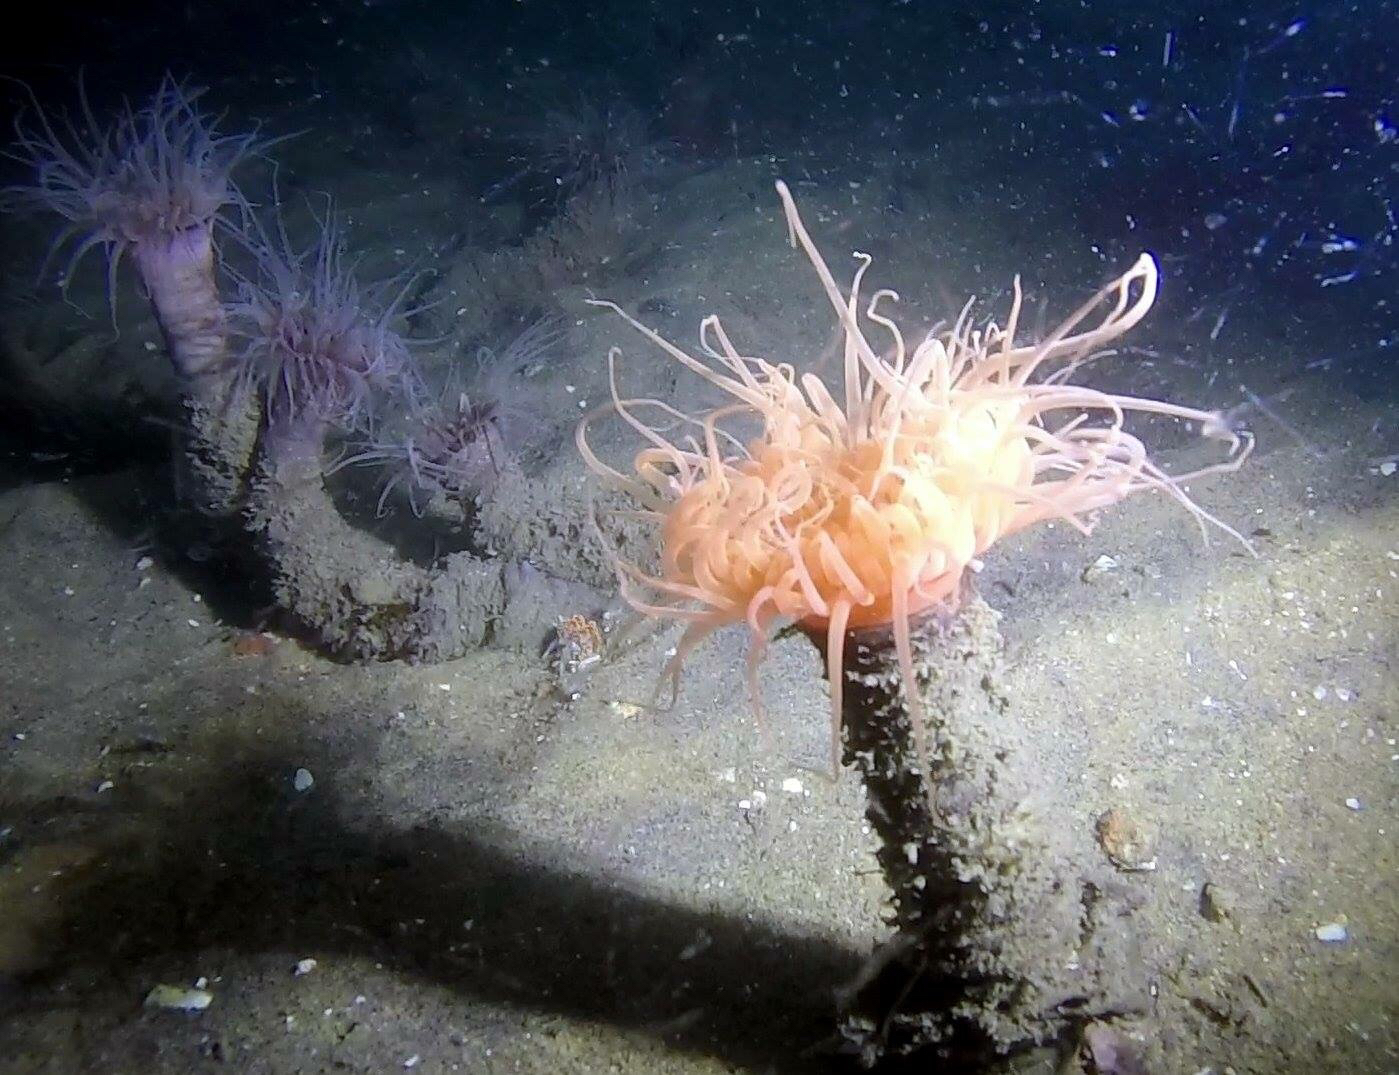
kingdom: Animalia
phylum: Cnidaria
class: Anthozoa
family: Cerianthidae
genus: Pachycerianthus
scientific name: Pachycerianthus torreyi
